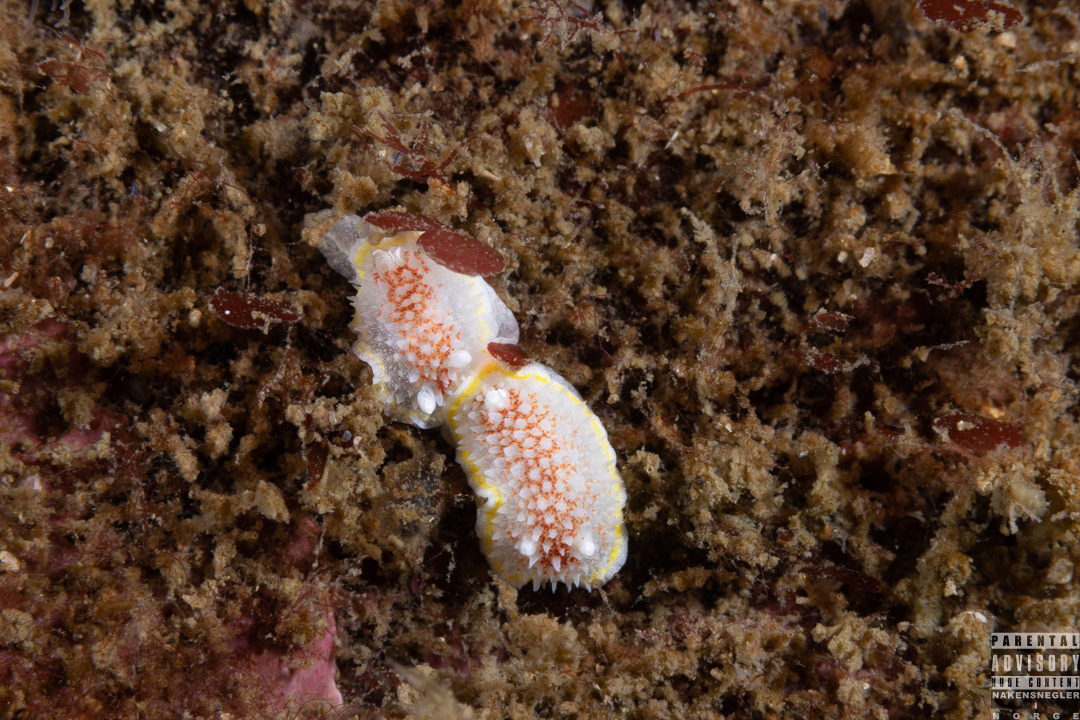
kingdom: Animalia
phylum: Mollusca
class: Gastropoda
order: Nudibranchia
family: Calycidorididae
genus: Diaphorodoris
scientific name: Diaphorodoris luteocincta
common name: Fried egg nudibranch
